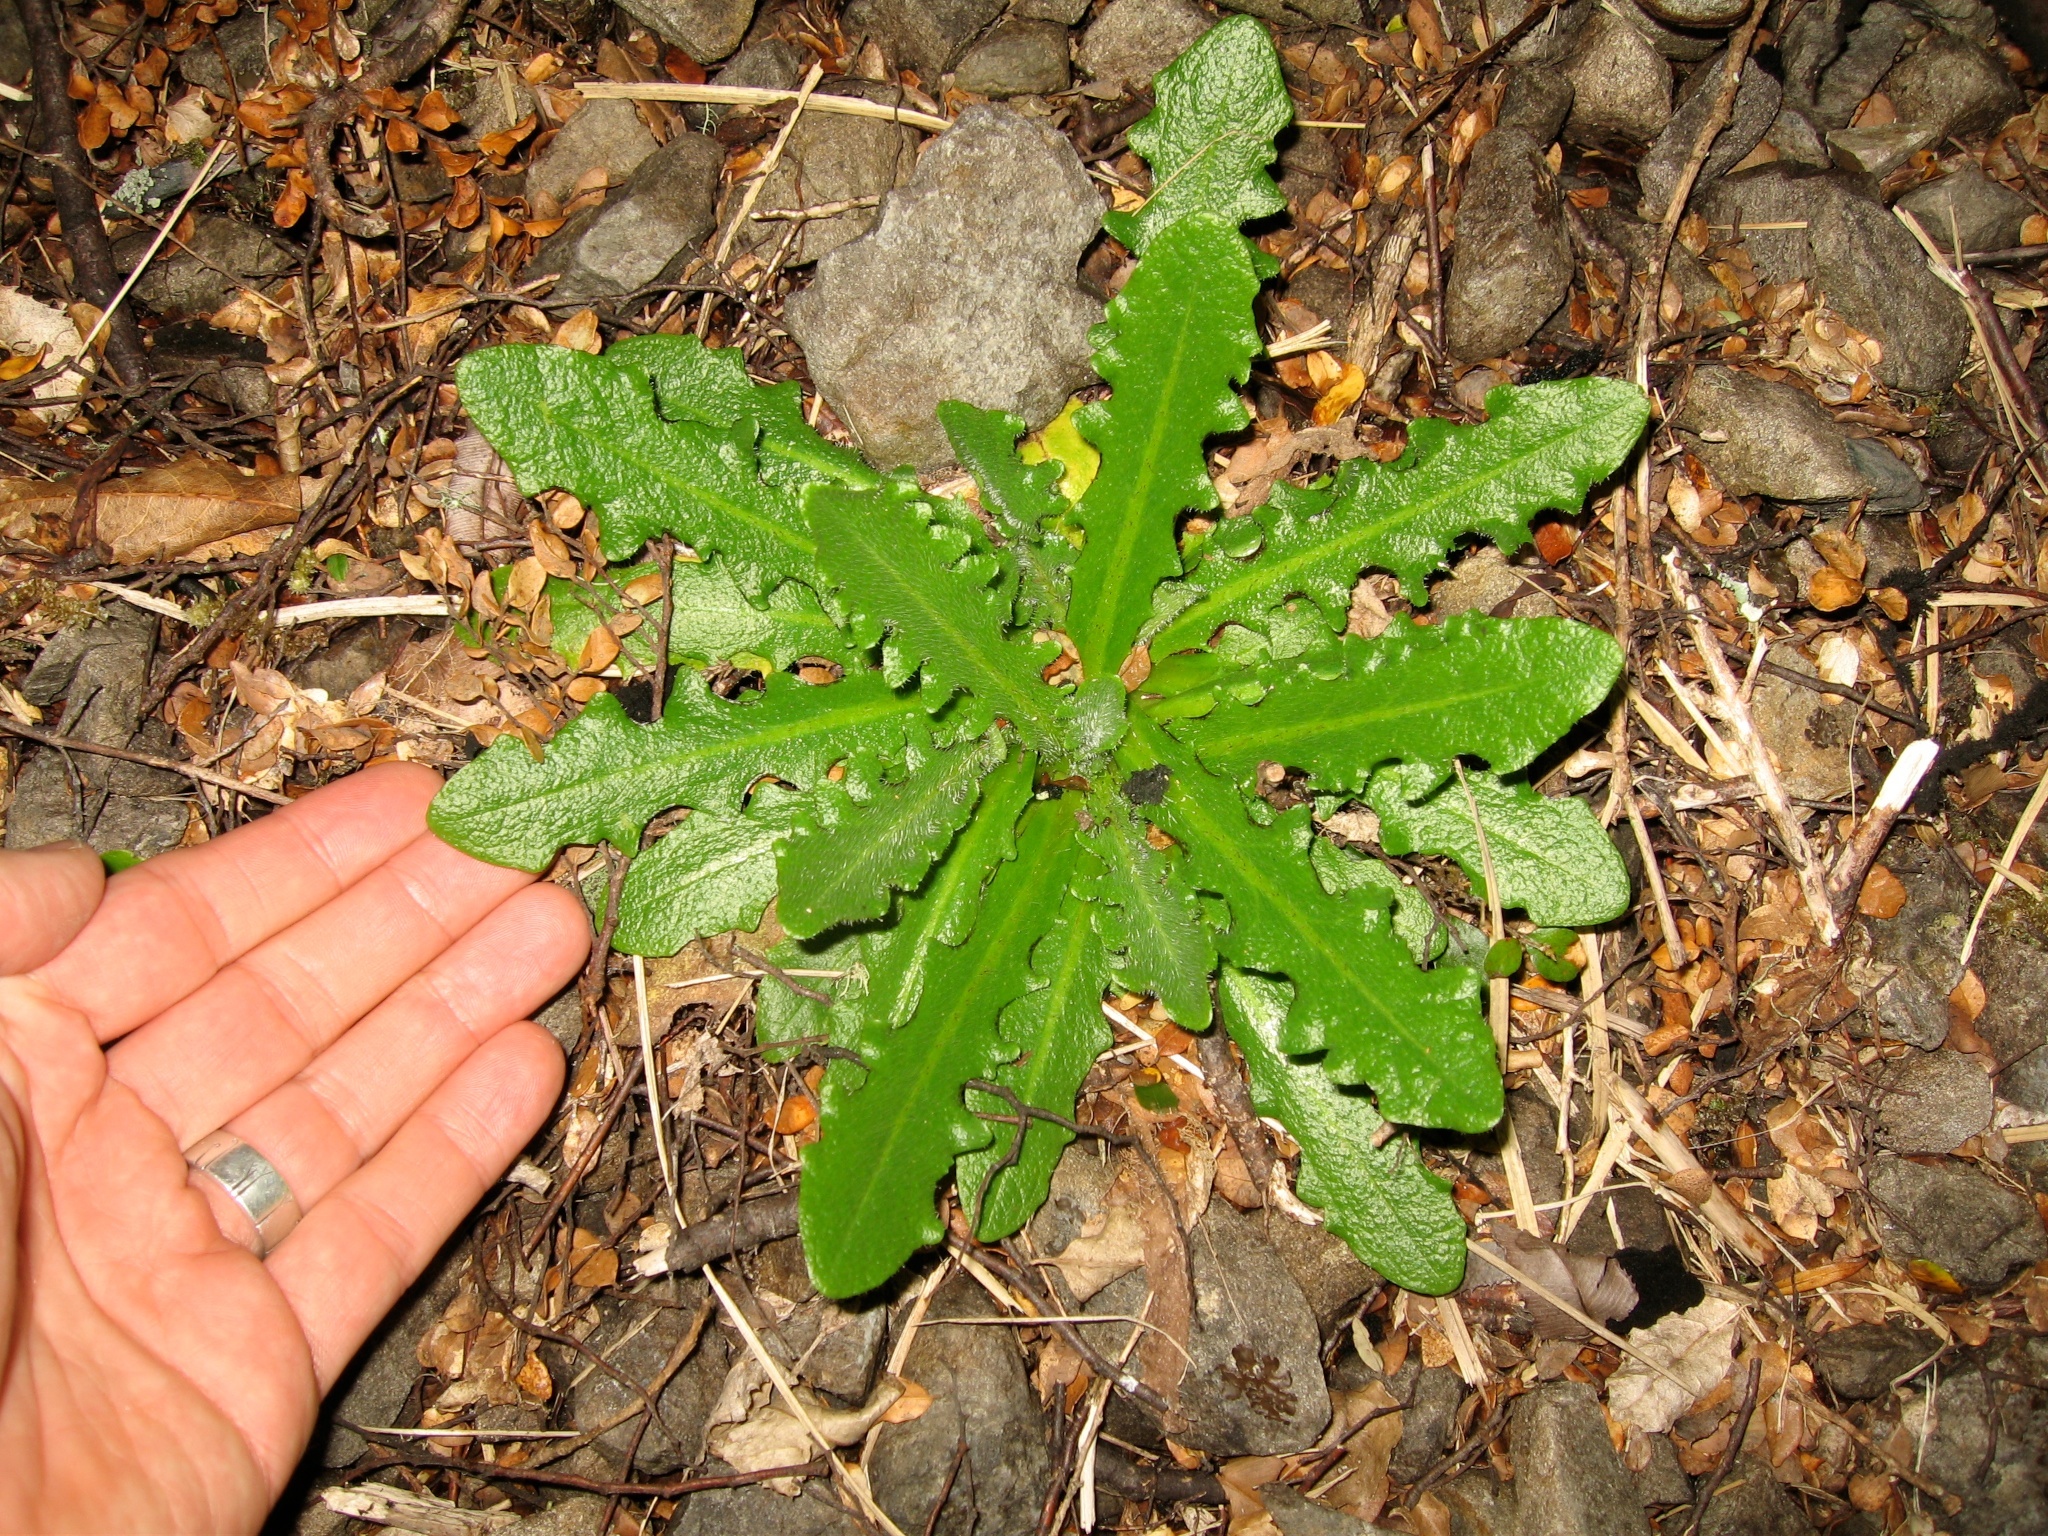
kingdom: Plantae
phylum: Tracheophyta
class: Magnoliopsida
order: Asterales
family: Asteraceae
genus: Hypochaeris
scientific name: Hypochaeris radicata
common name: Flatweed
